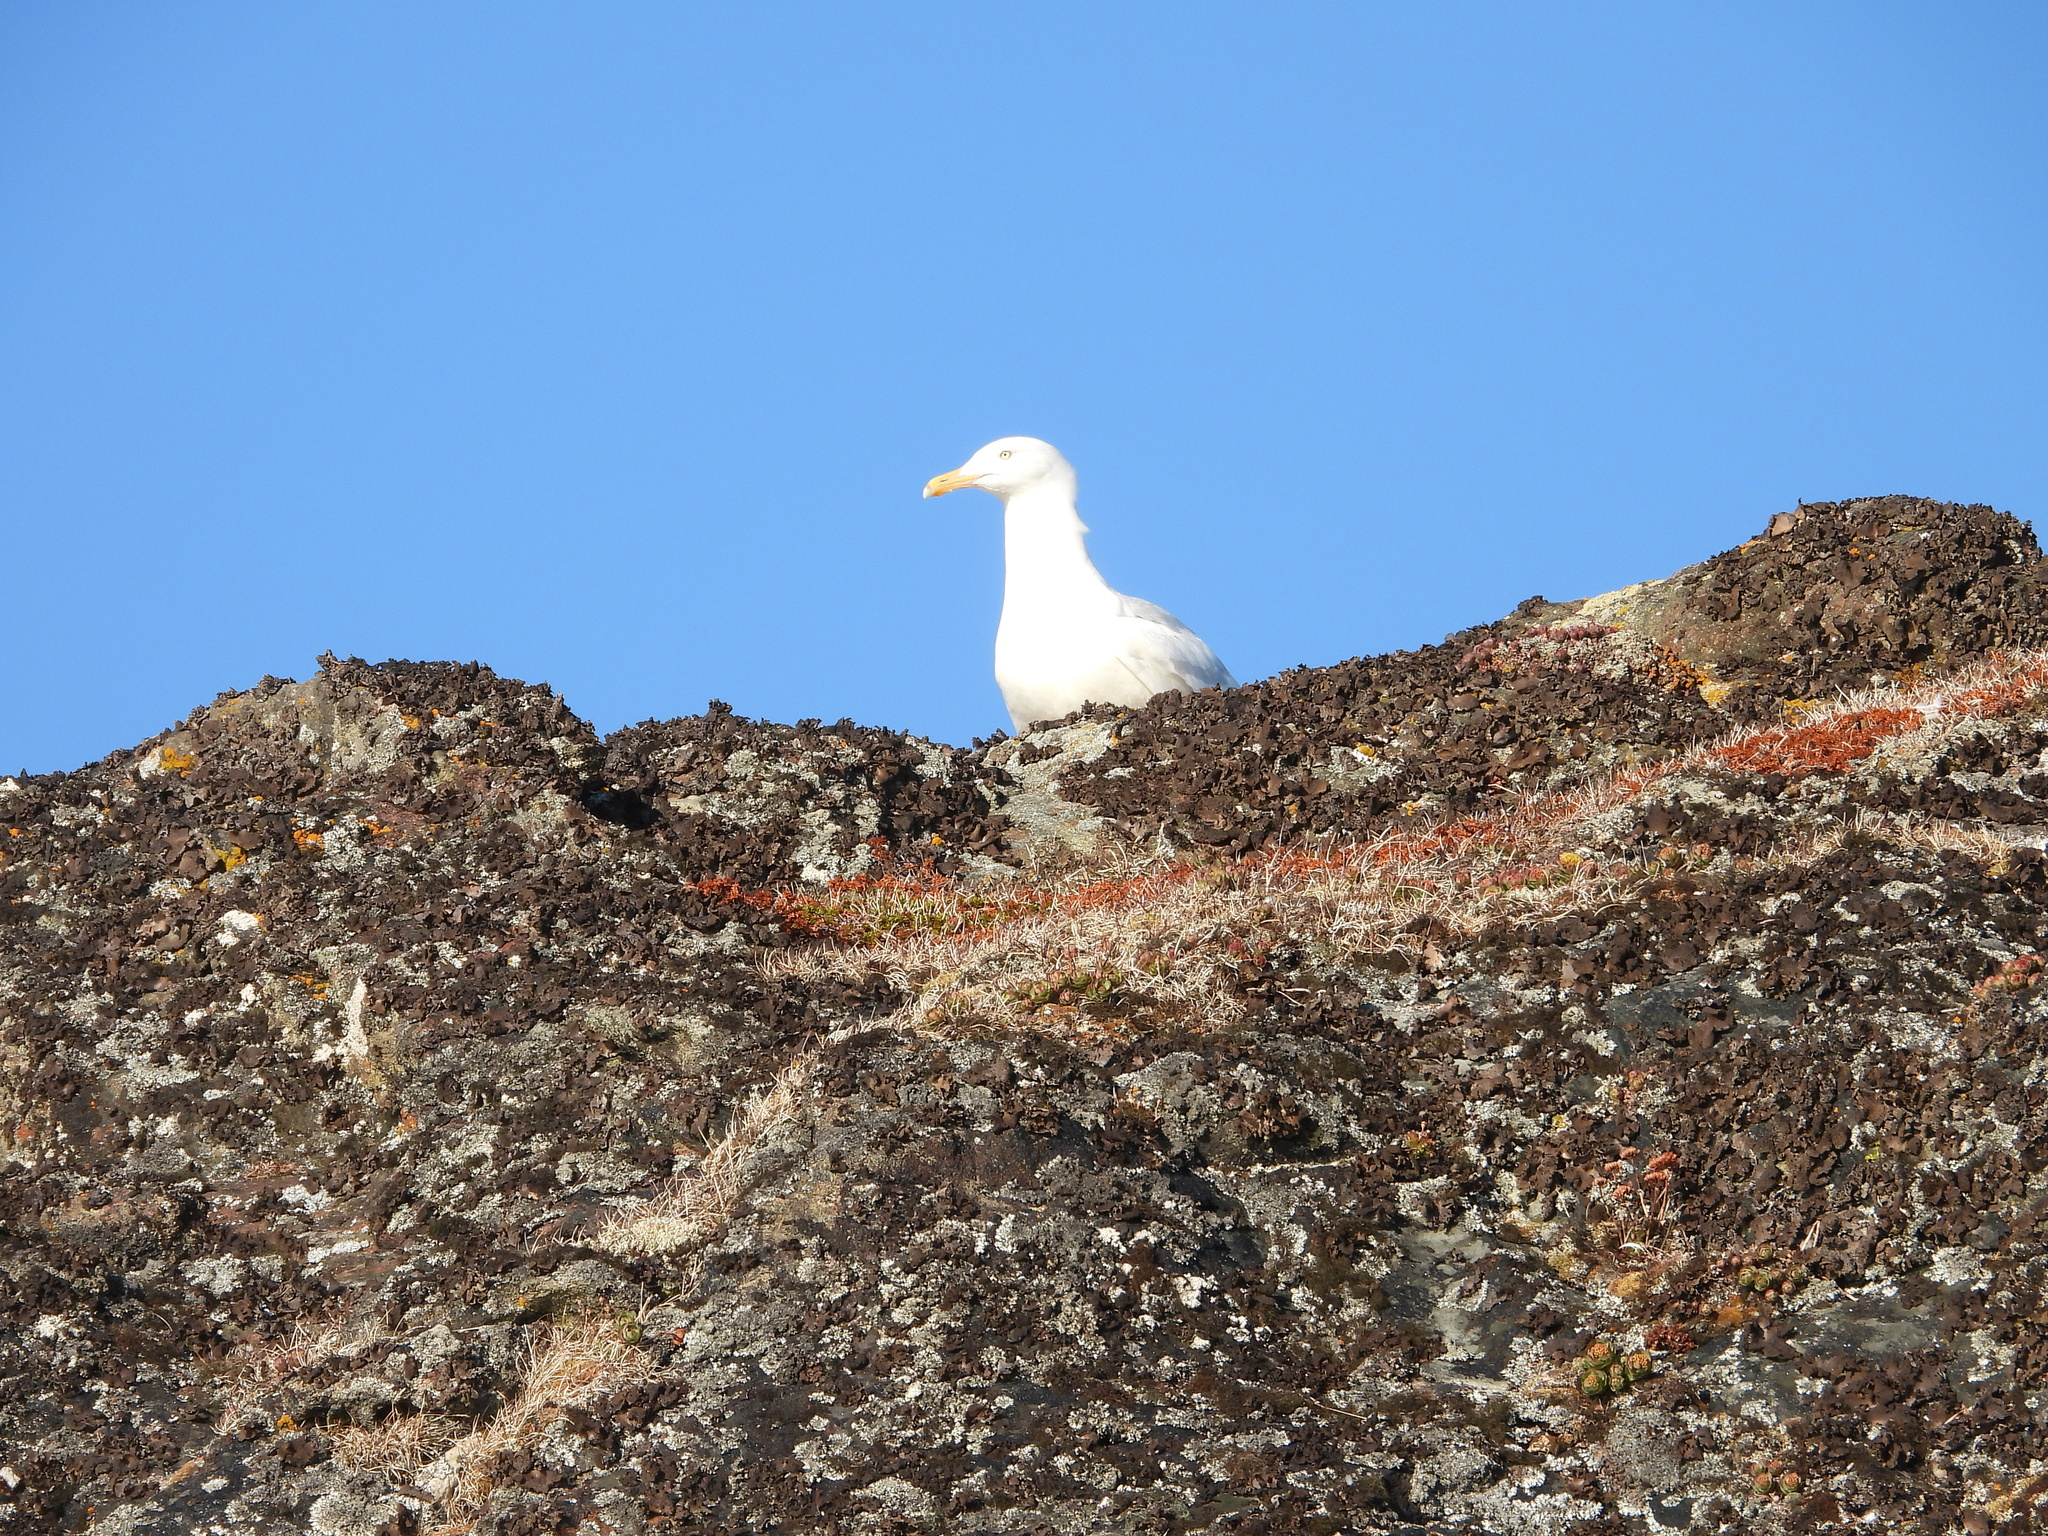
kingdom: Animalia
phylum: Chordata
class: Aves
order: Charadriiformes
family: Laridae
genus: Larus
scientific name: Larus hyperboreus
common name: Glaucous gull
